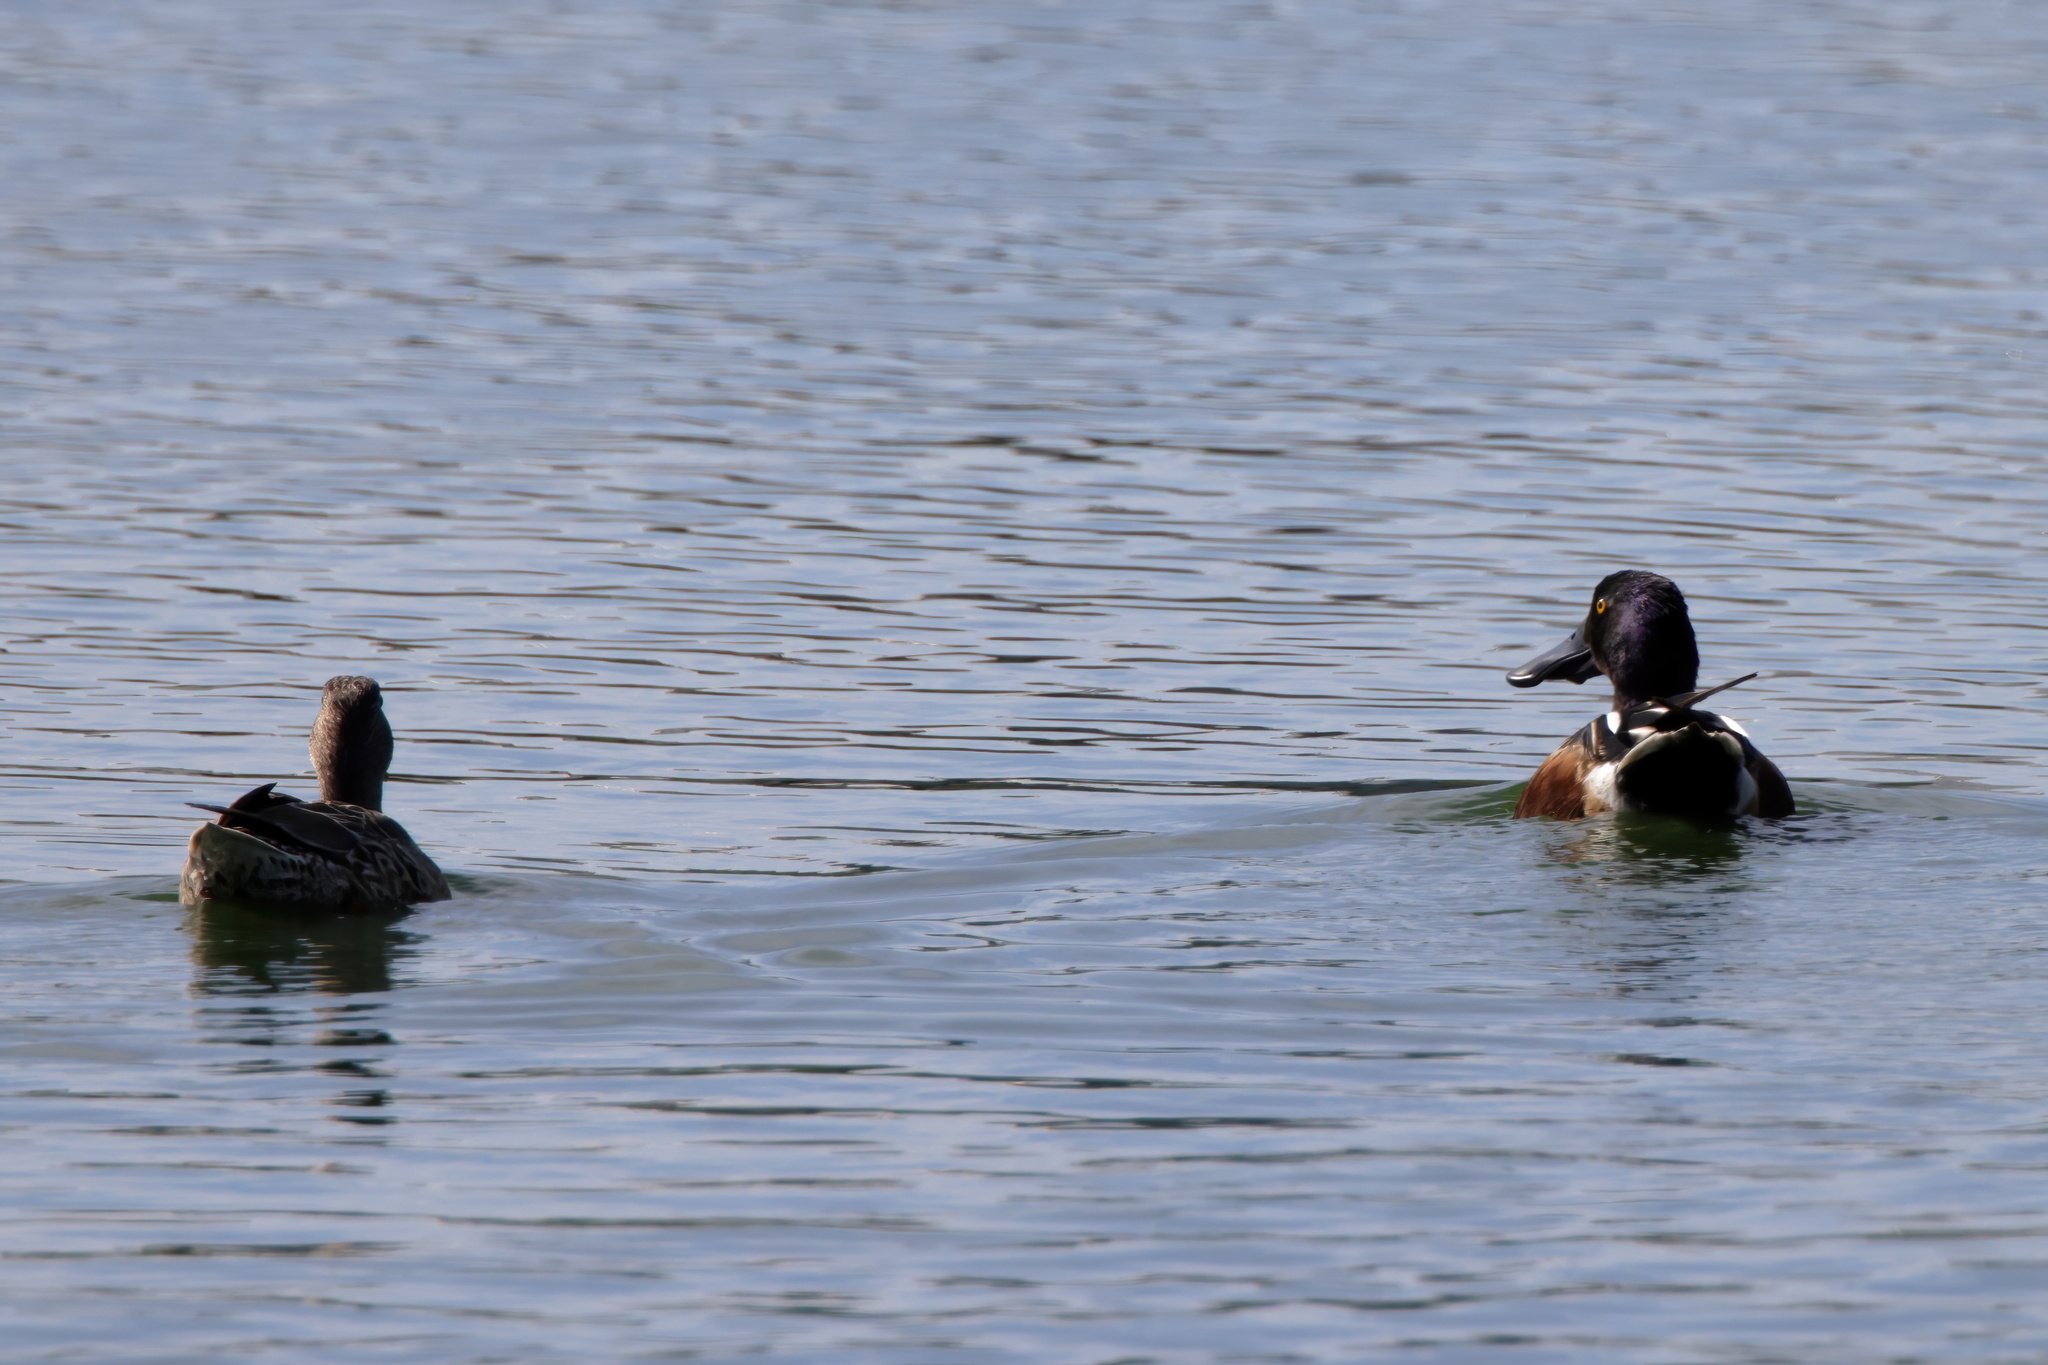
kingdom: Animalia
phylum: Chordata
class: Aves
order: Anseriformes
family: Anatidae
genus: Spatula
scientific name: Spatula clypeata
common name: Northern shoveler
